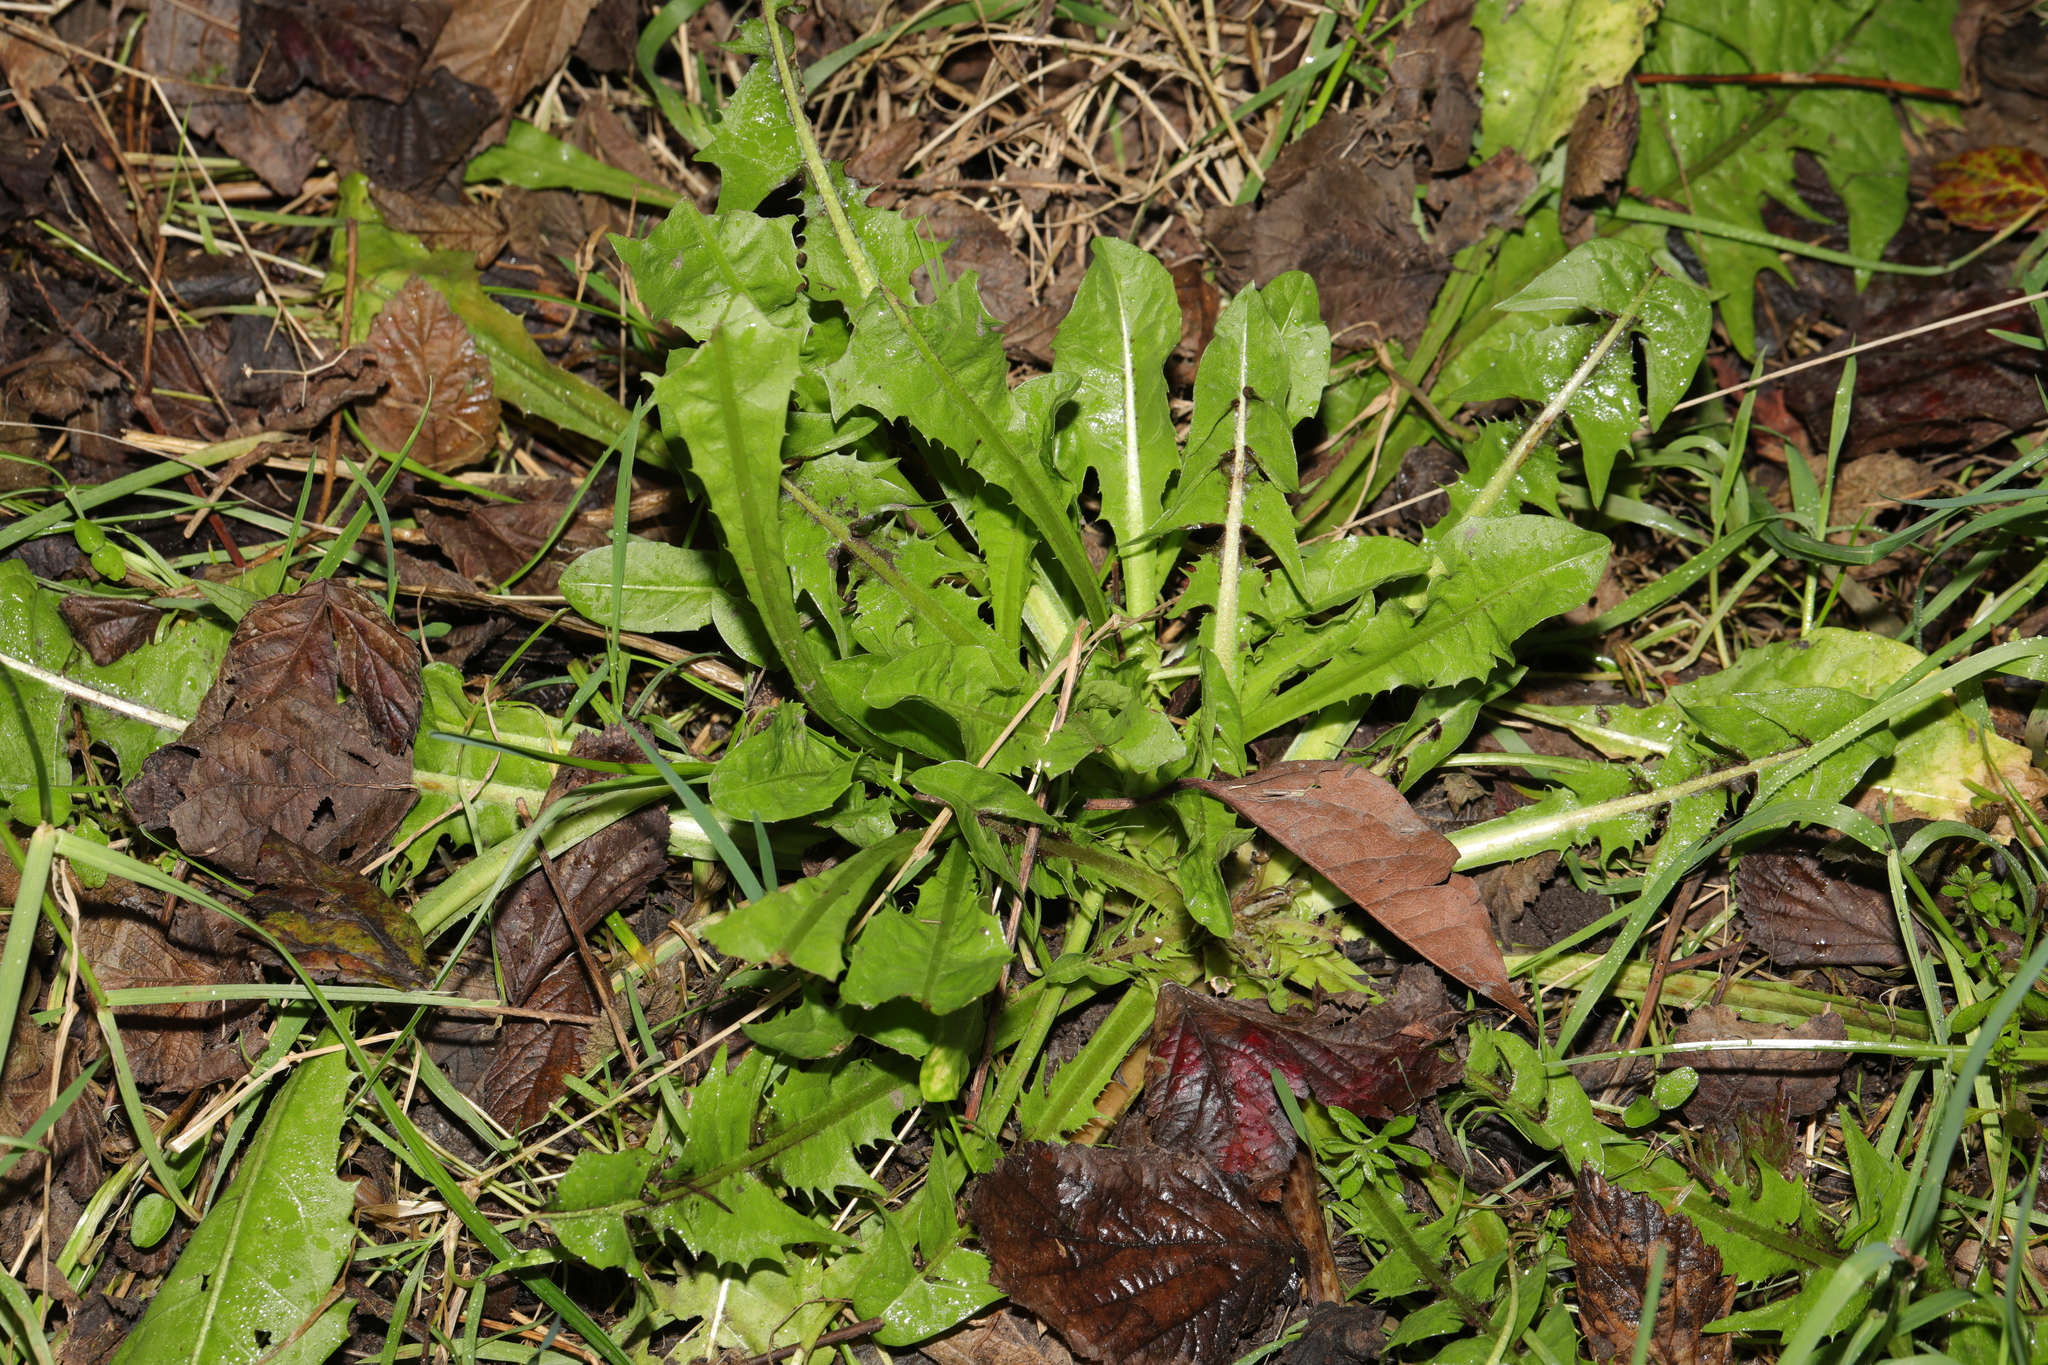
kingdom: Plantae
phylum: Tracheophyta
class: Magnoliopsida
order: Asterales
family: Asteraceae
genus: Taraxacum
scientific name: Taraxacum officinale
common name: Common dandelion
